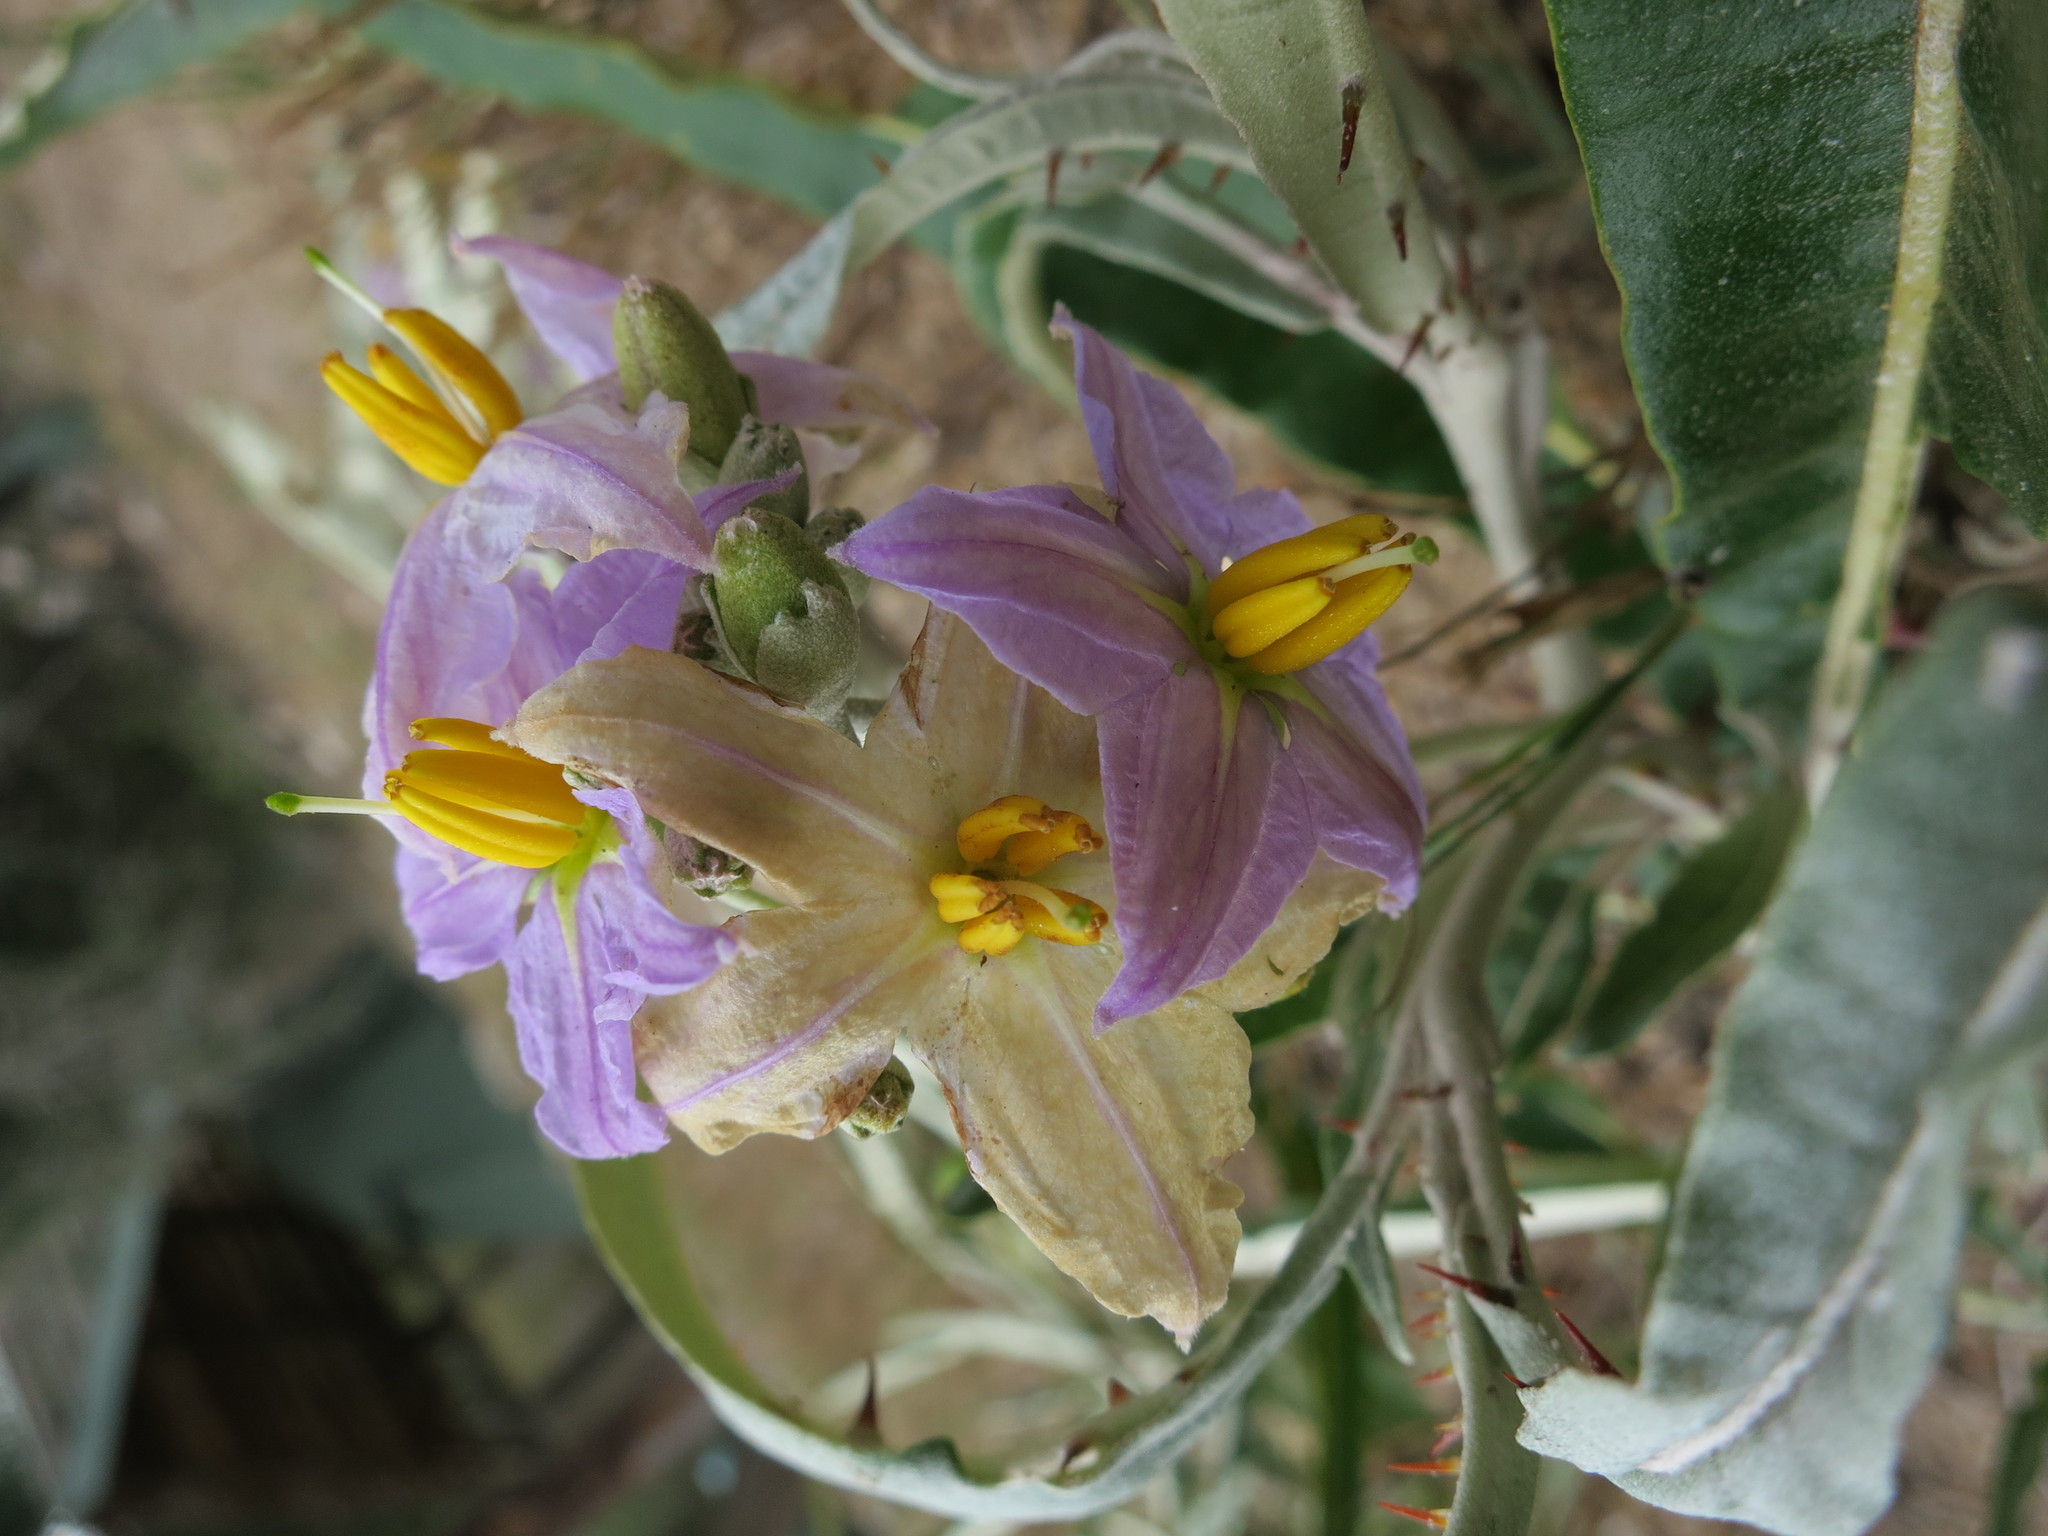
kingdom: Plantae
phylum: Tracheophyta
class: Magnoliopsida
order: Solanales
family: Solanaceae
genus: Solanum
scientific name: Solanum croatii
